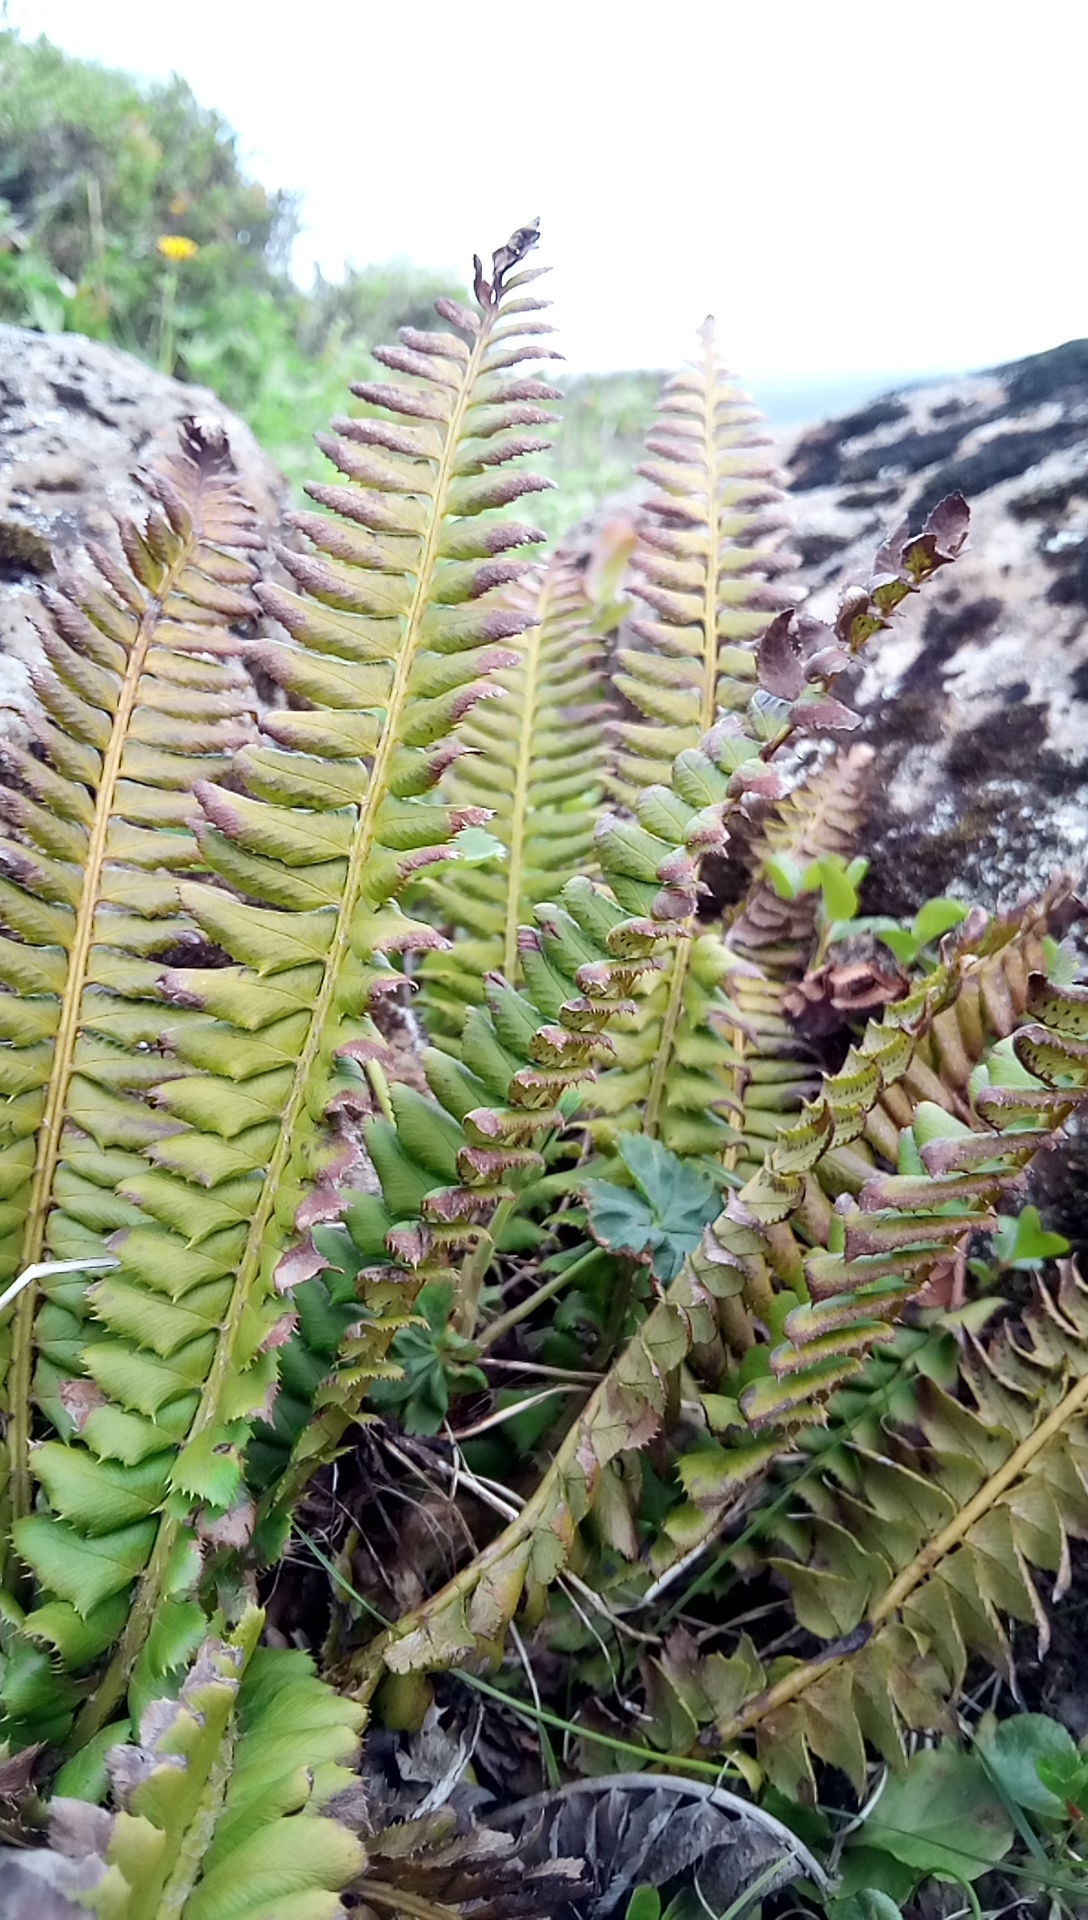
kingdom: Plantae
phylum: Tracheophyta
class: Polypodiopsida
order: Polypodiales
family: Dryopteridaceae
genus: Polystichum
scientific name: Polystichum lonchitis
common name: Holly fern
